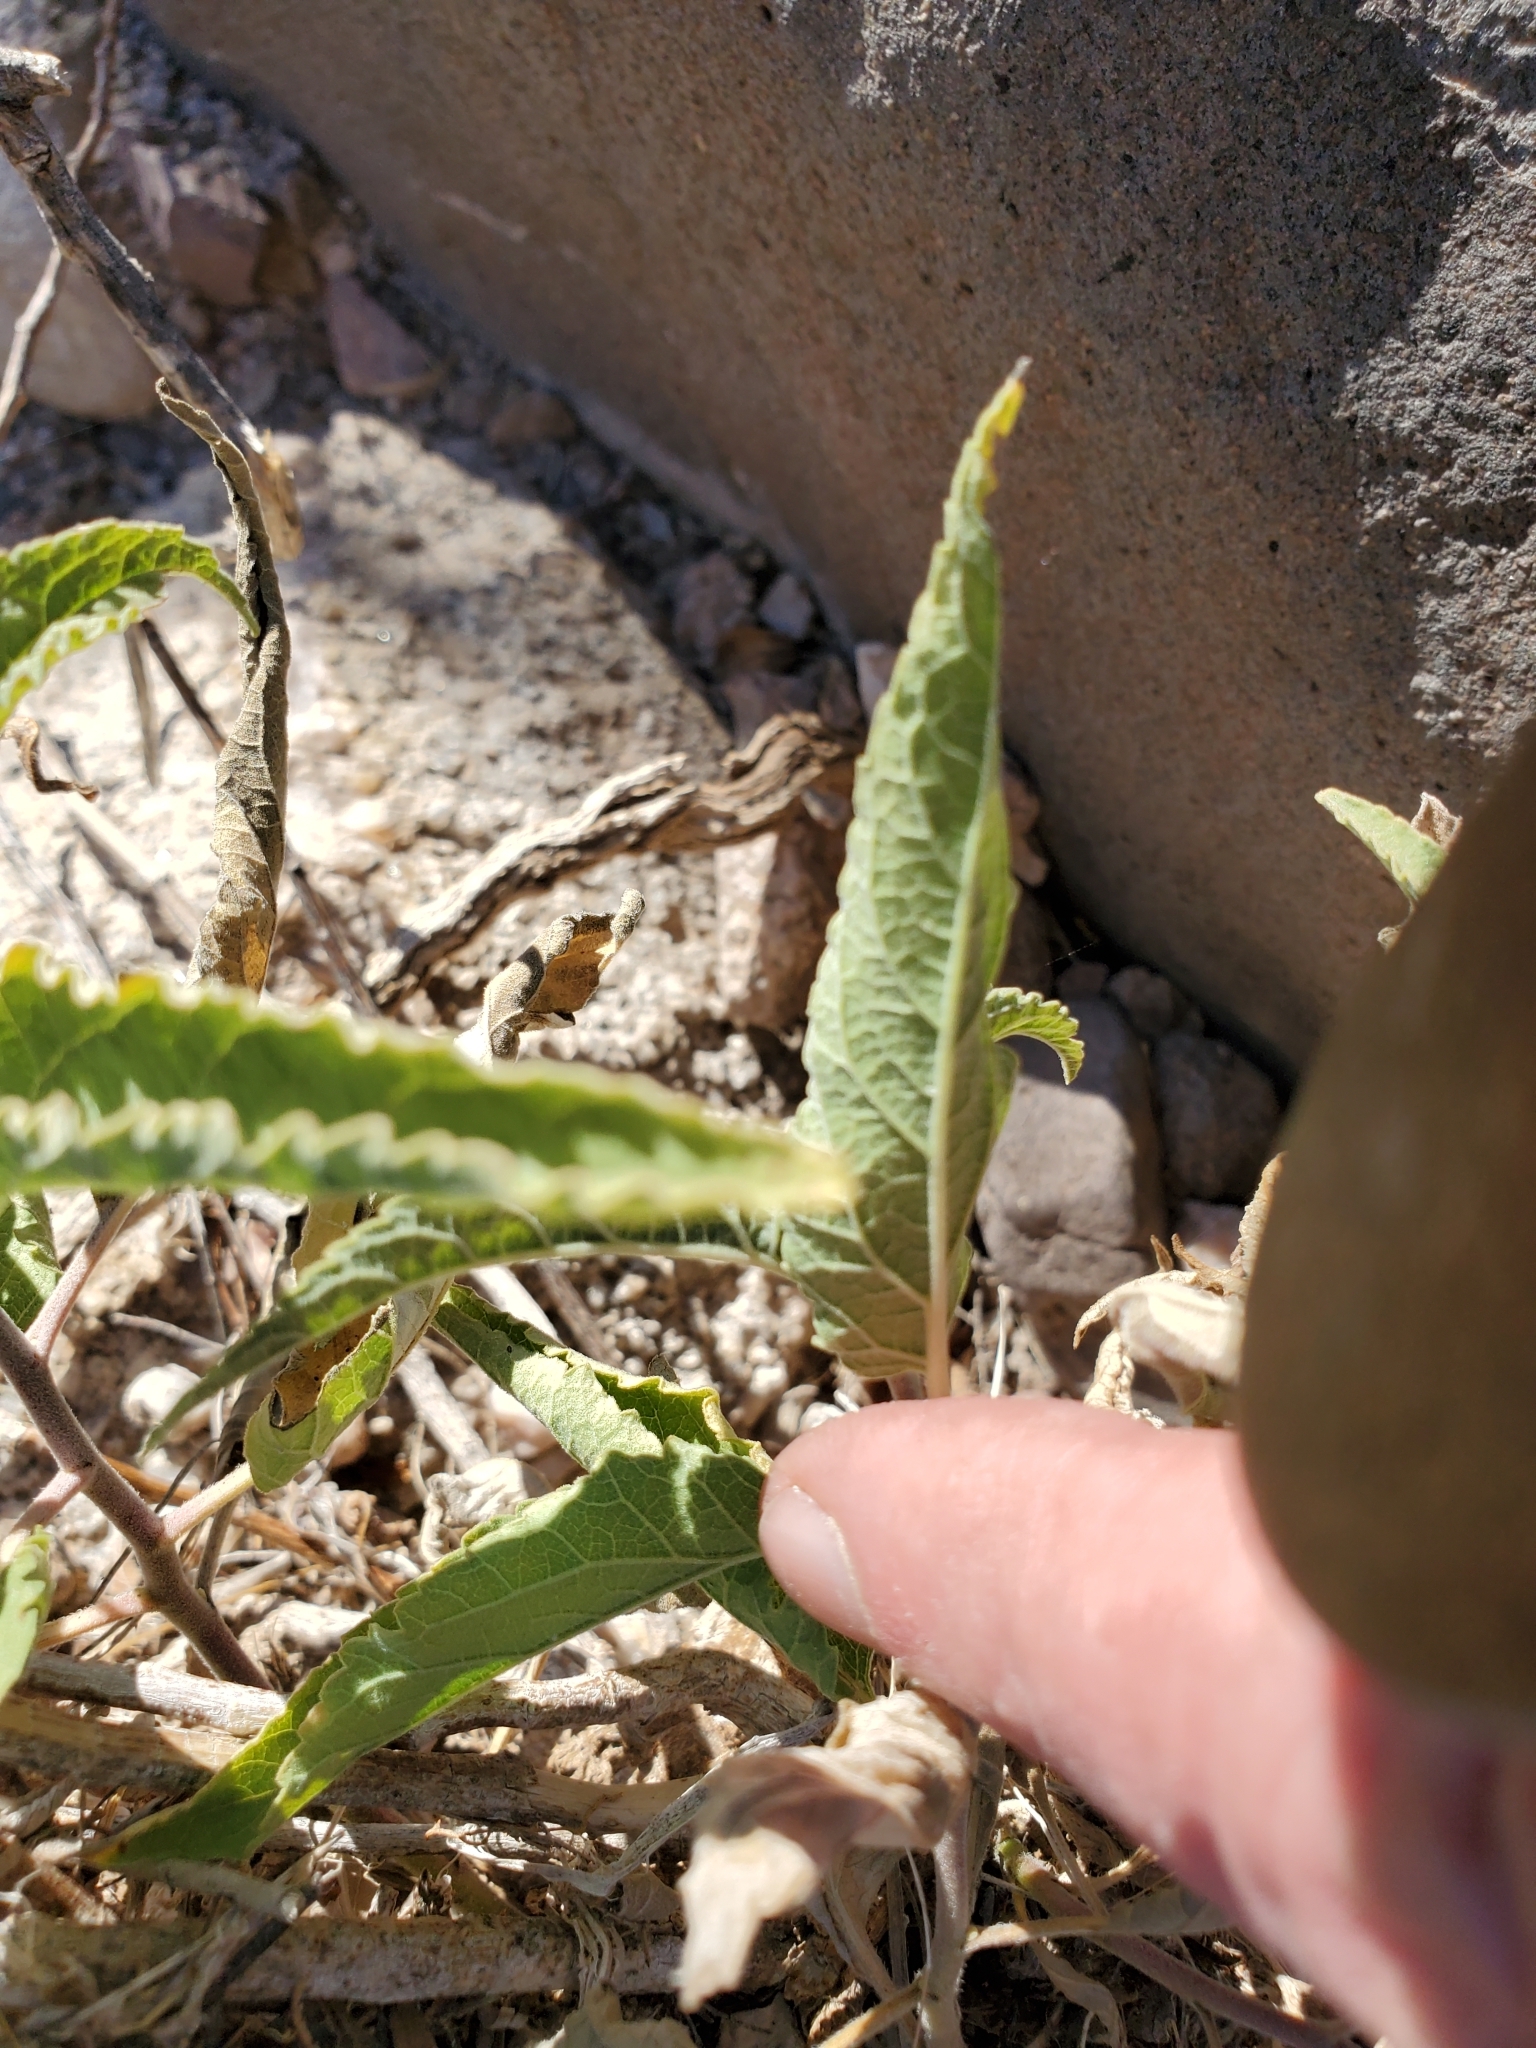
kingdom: Plantae
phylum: Tracheophyta
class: Magnoliopsida
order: Asterales
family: Asteraceae
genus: Ambrosia
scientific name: Ambrosia ambrosioides
